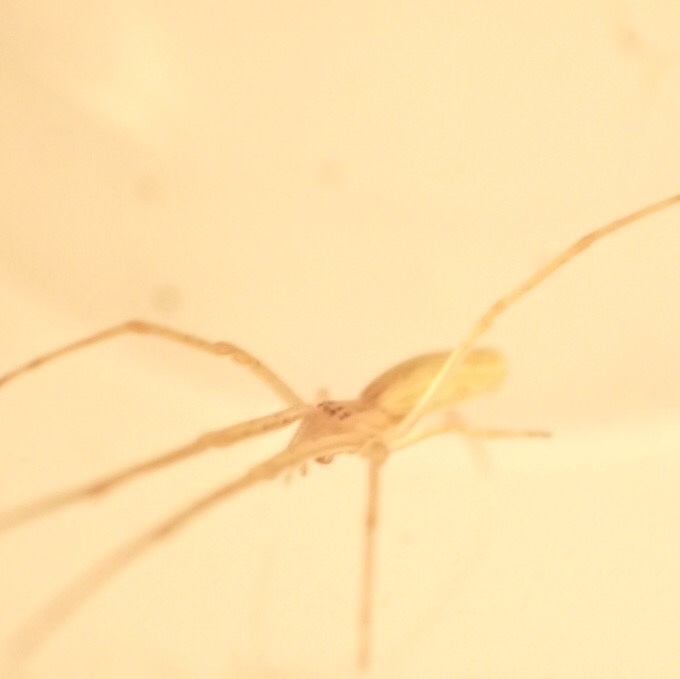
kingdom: Animalia
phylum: Arthropoda
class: Arachnida
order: Araneae
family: Tetragnathidae
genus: Tetragnatha
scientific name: Tetragnatha
